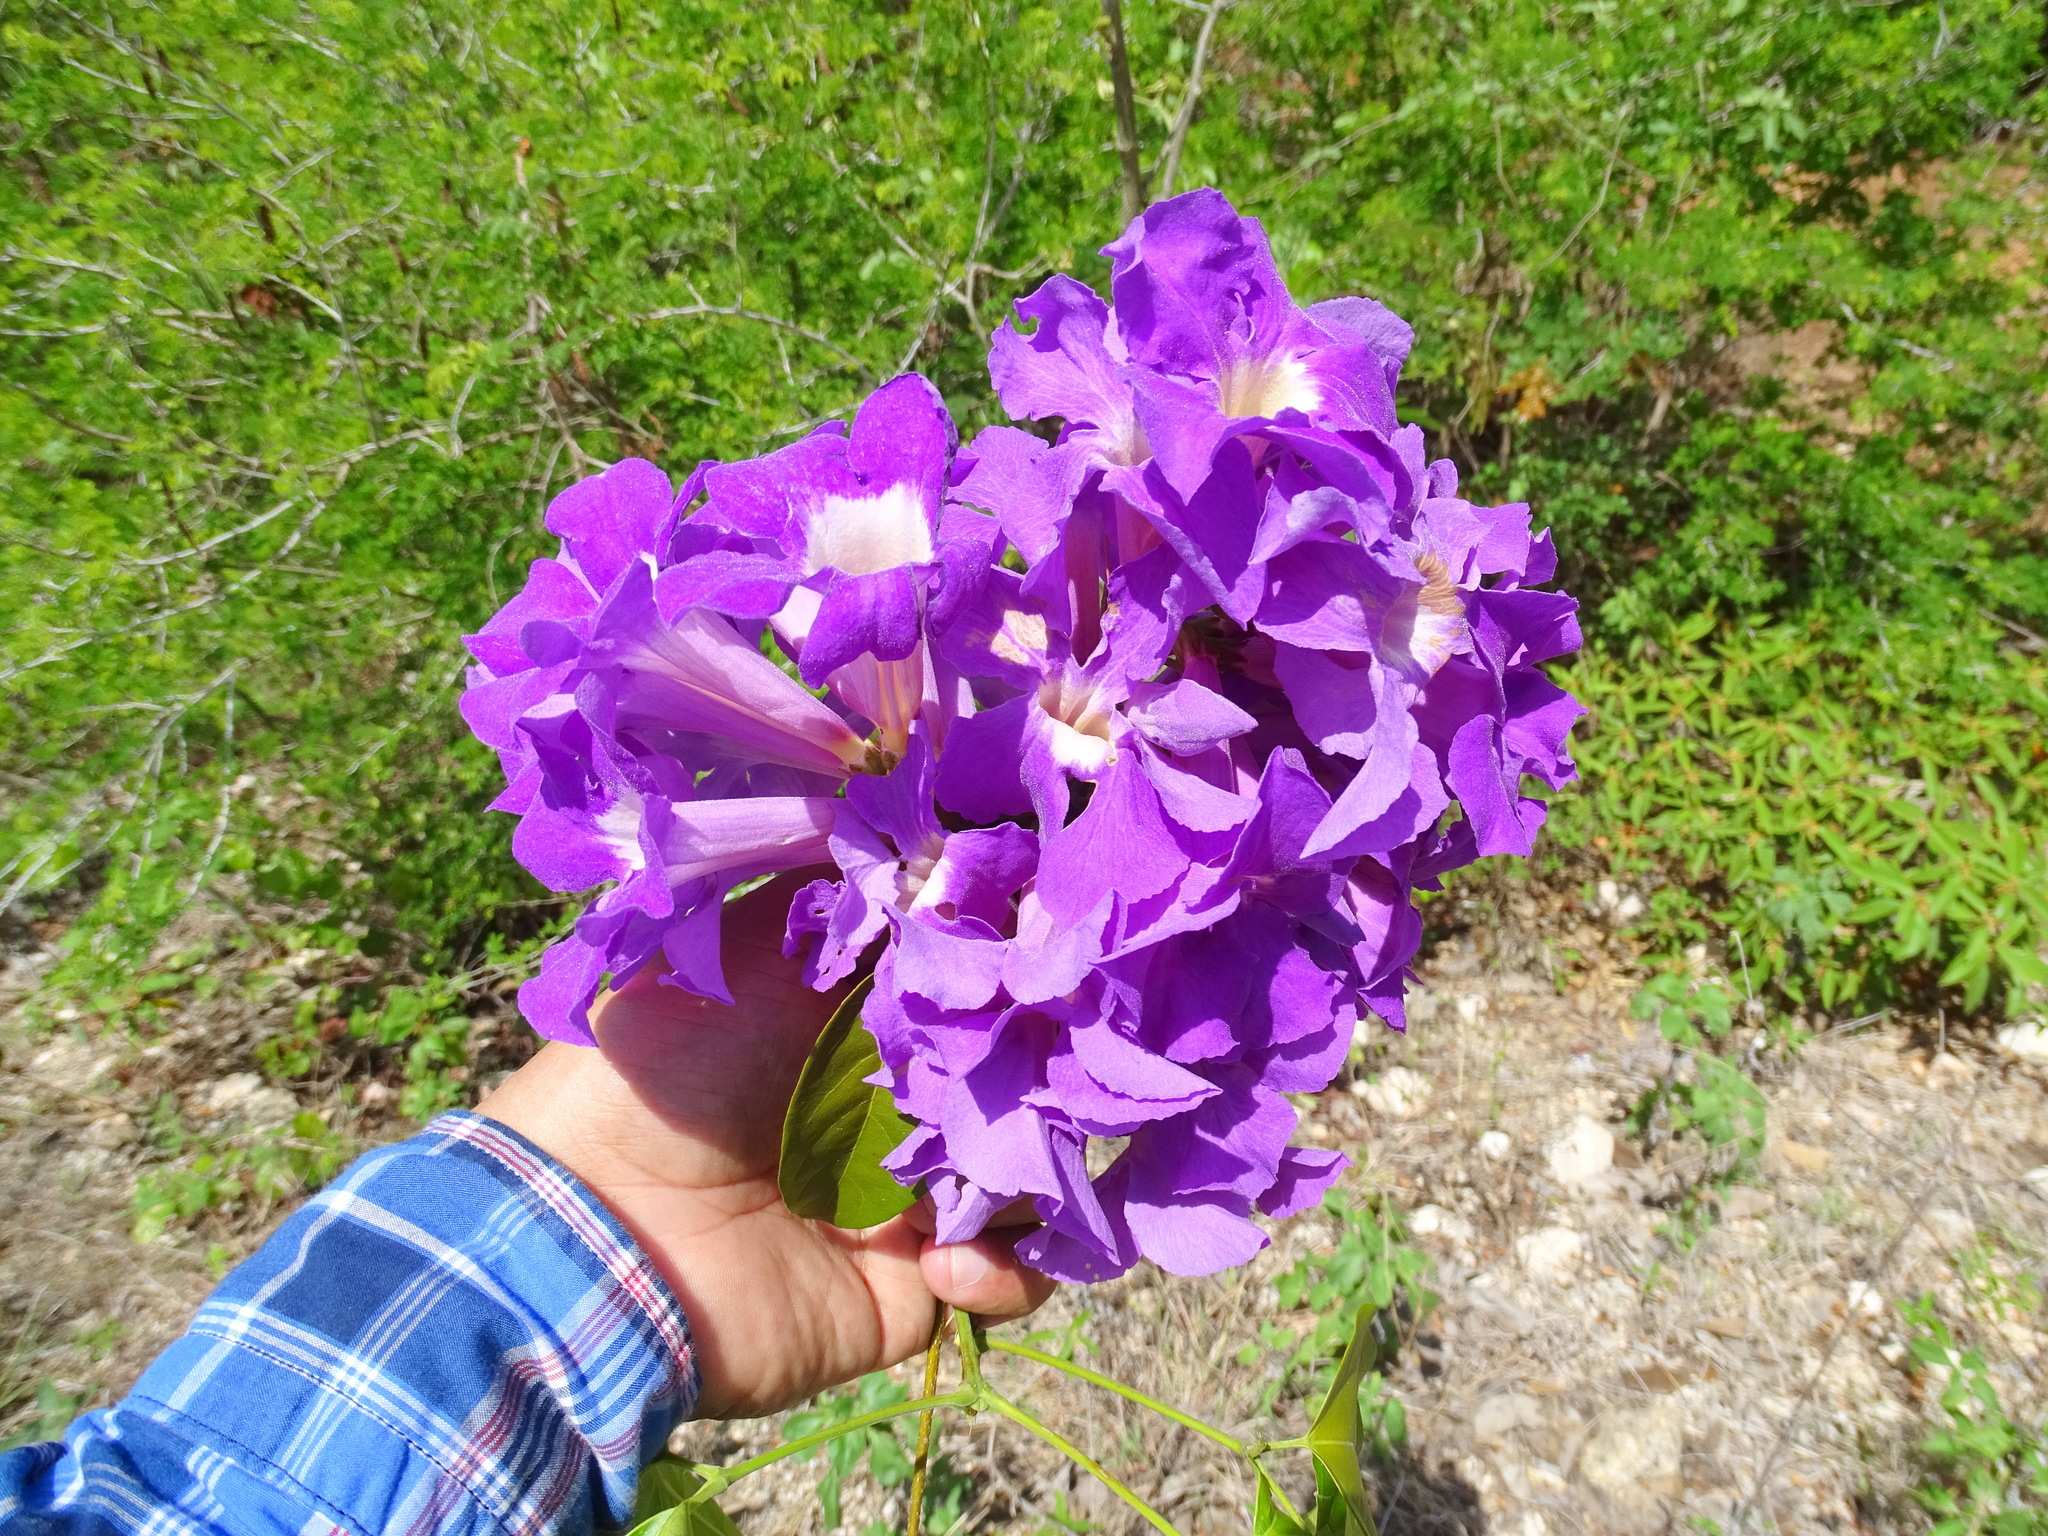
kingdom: Plantae
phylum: Tracheophyta
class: Magnoliopsida
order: Lamiales
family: Bignoniaceae
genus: Mansoa
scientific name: Mansoa verrucifera
